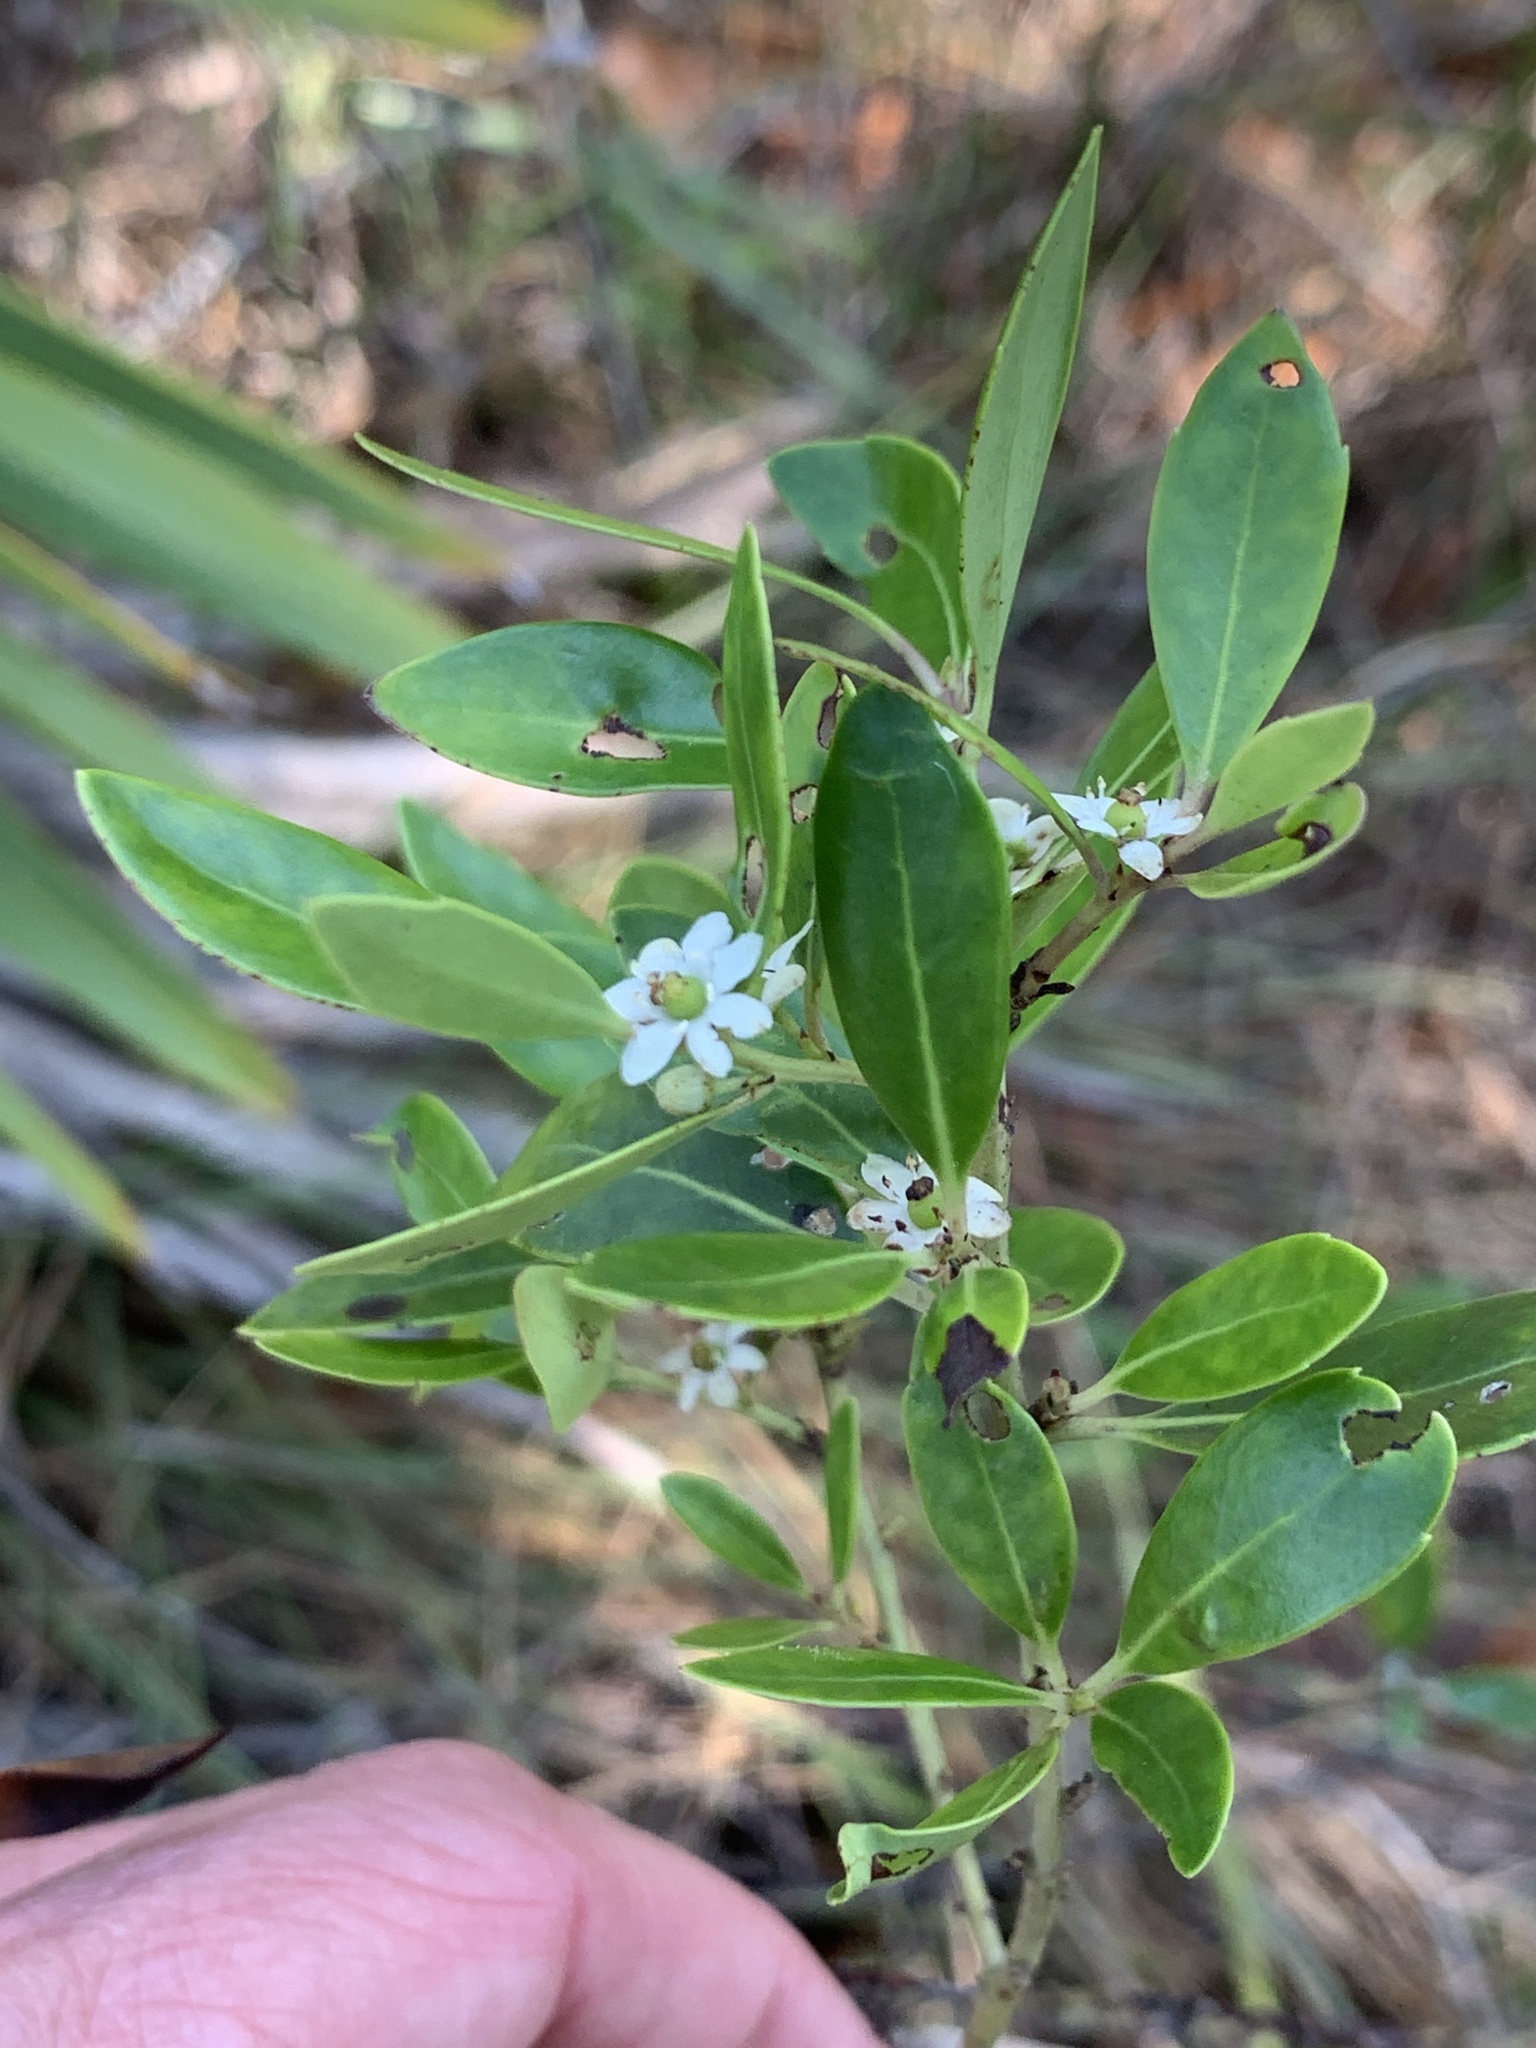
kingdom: Plantae
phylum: Tracheophyta
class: Magnoliopsida
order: Aquifoliales
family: Aquifoliaceae
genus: Ilex
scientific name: Ilex glabra
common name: Bitter gallberry
